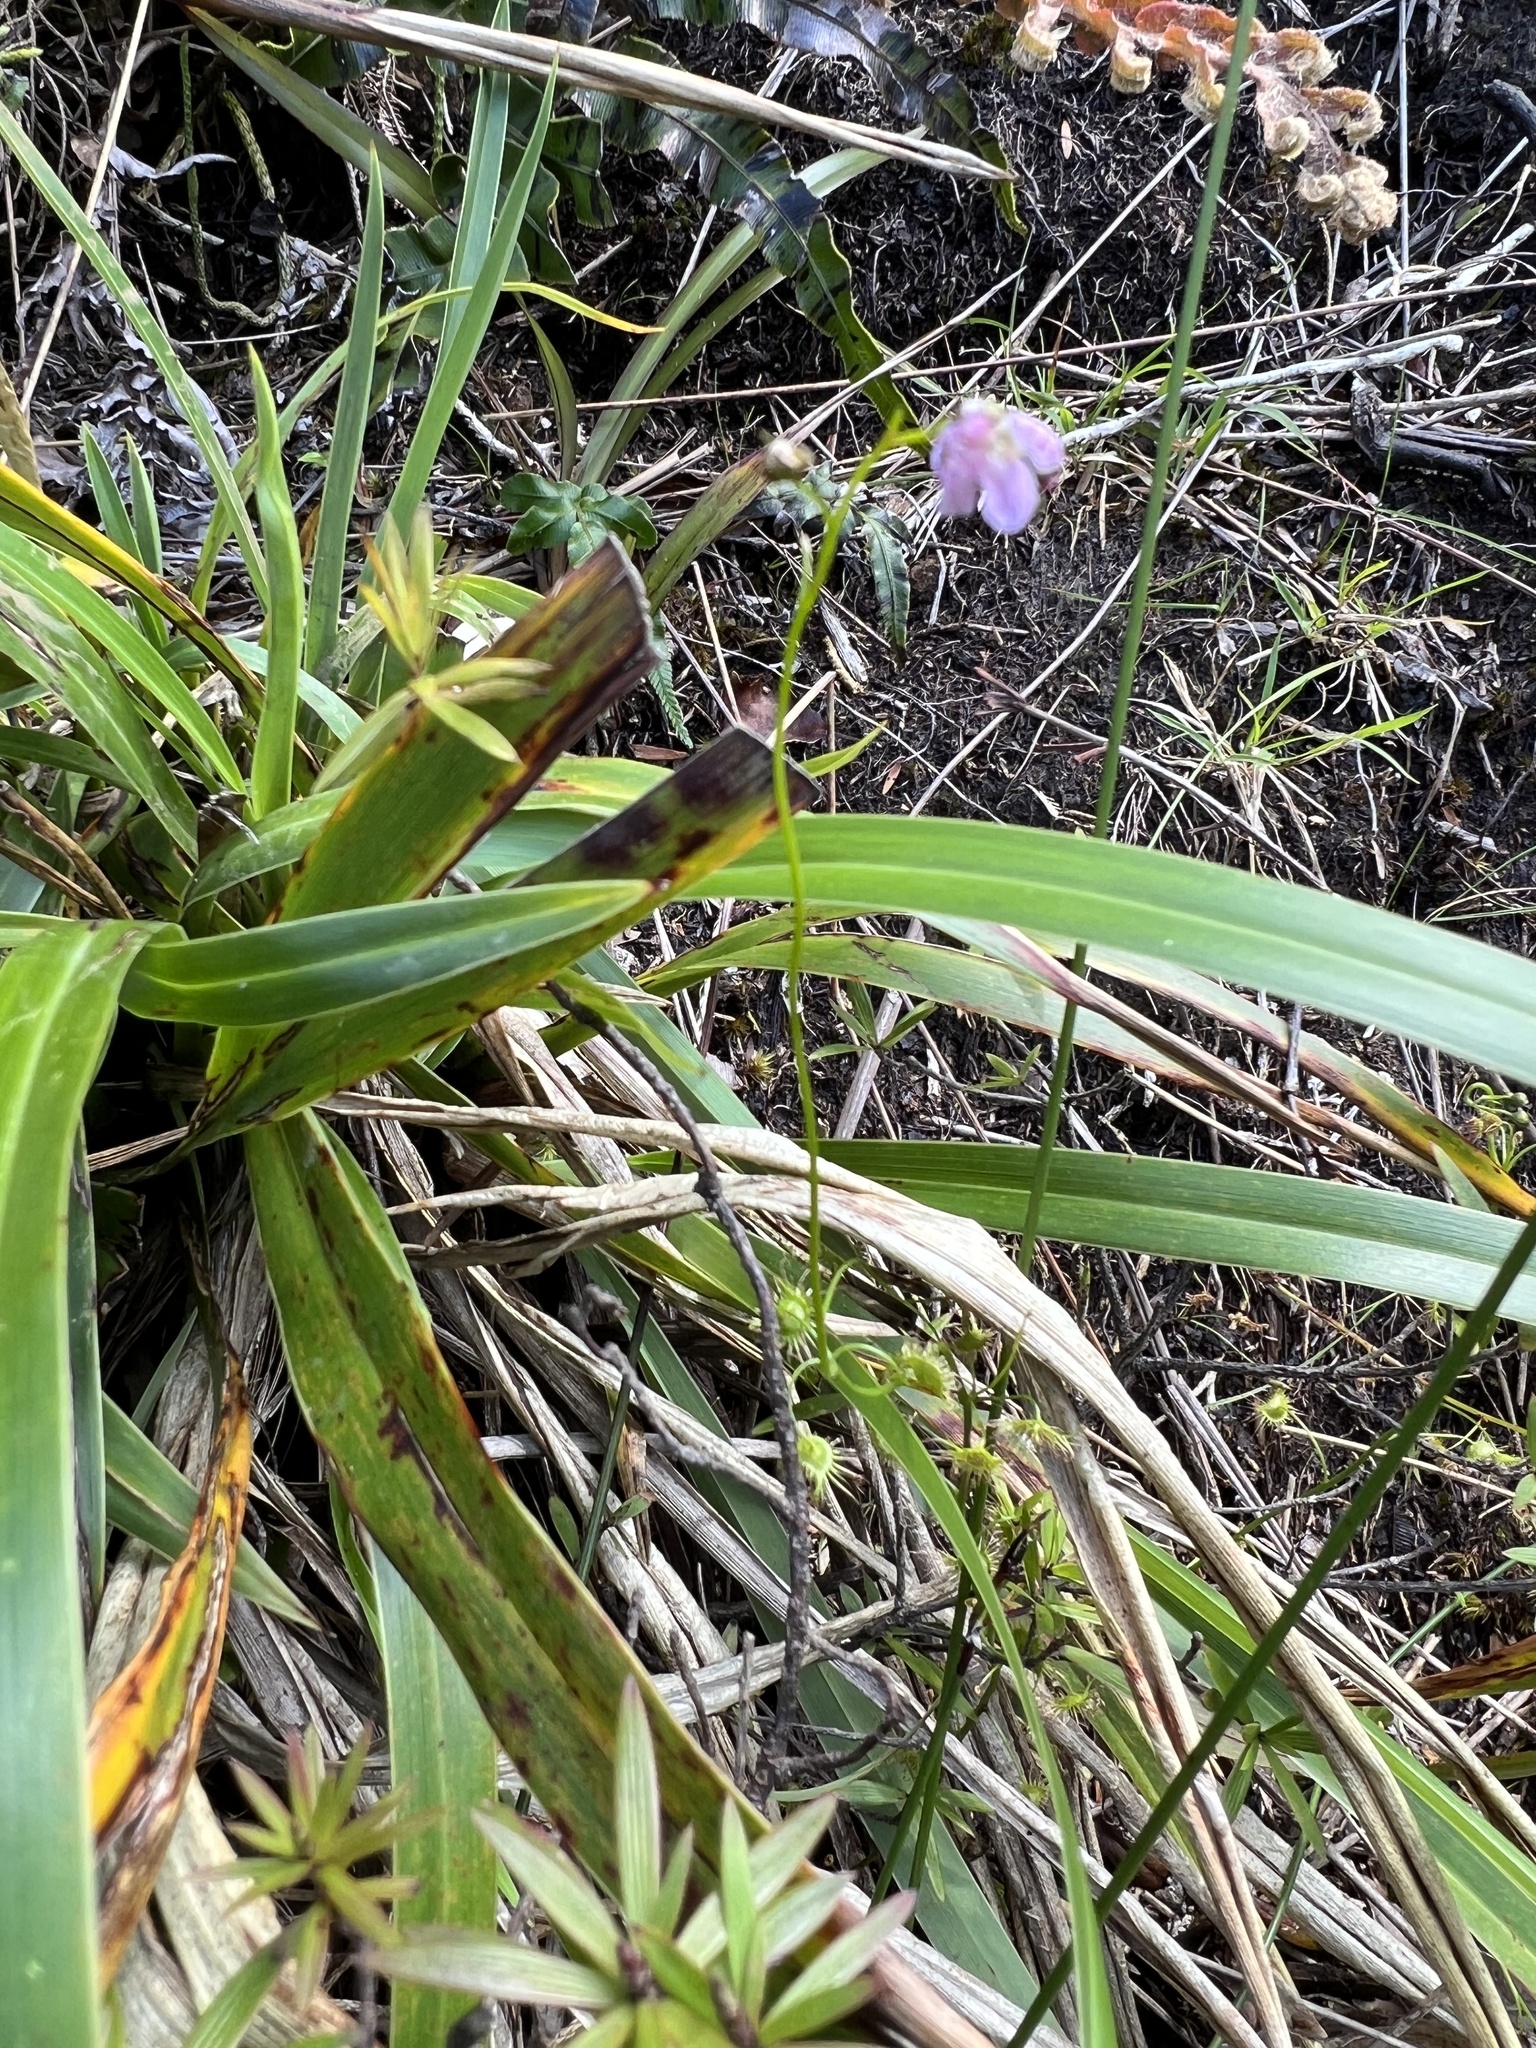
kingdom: Plantae
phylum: Tracheophyta
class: Magnoliopsida
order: Caryophyllales
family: Droseraceae
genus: Drosera
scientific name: Drosera peltata
